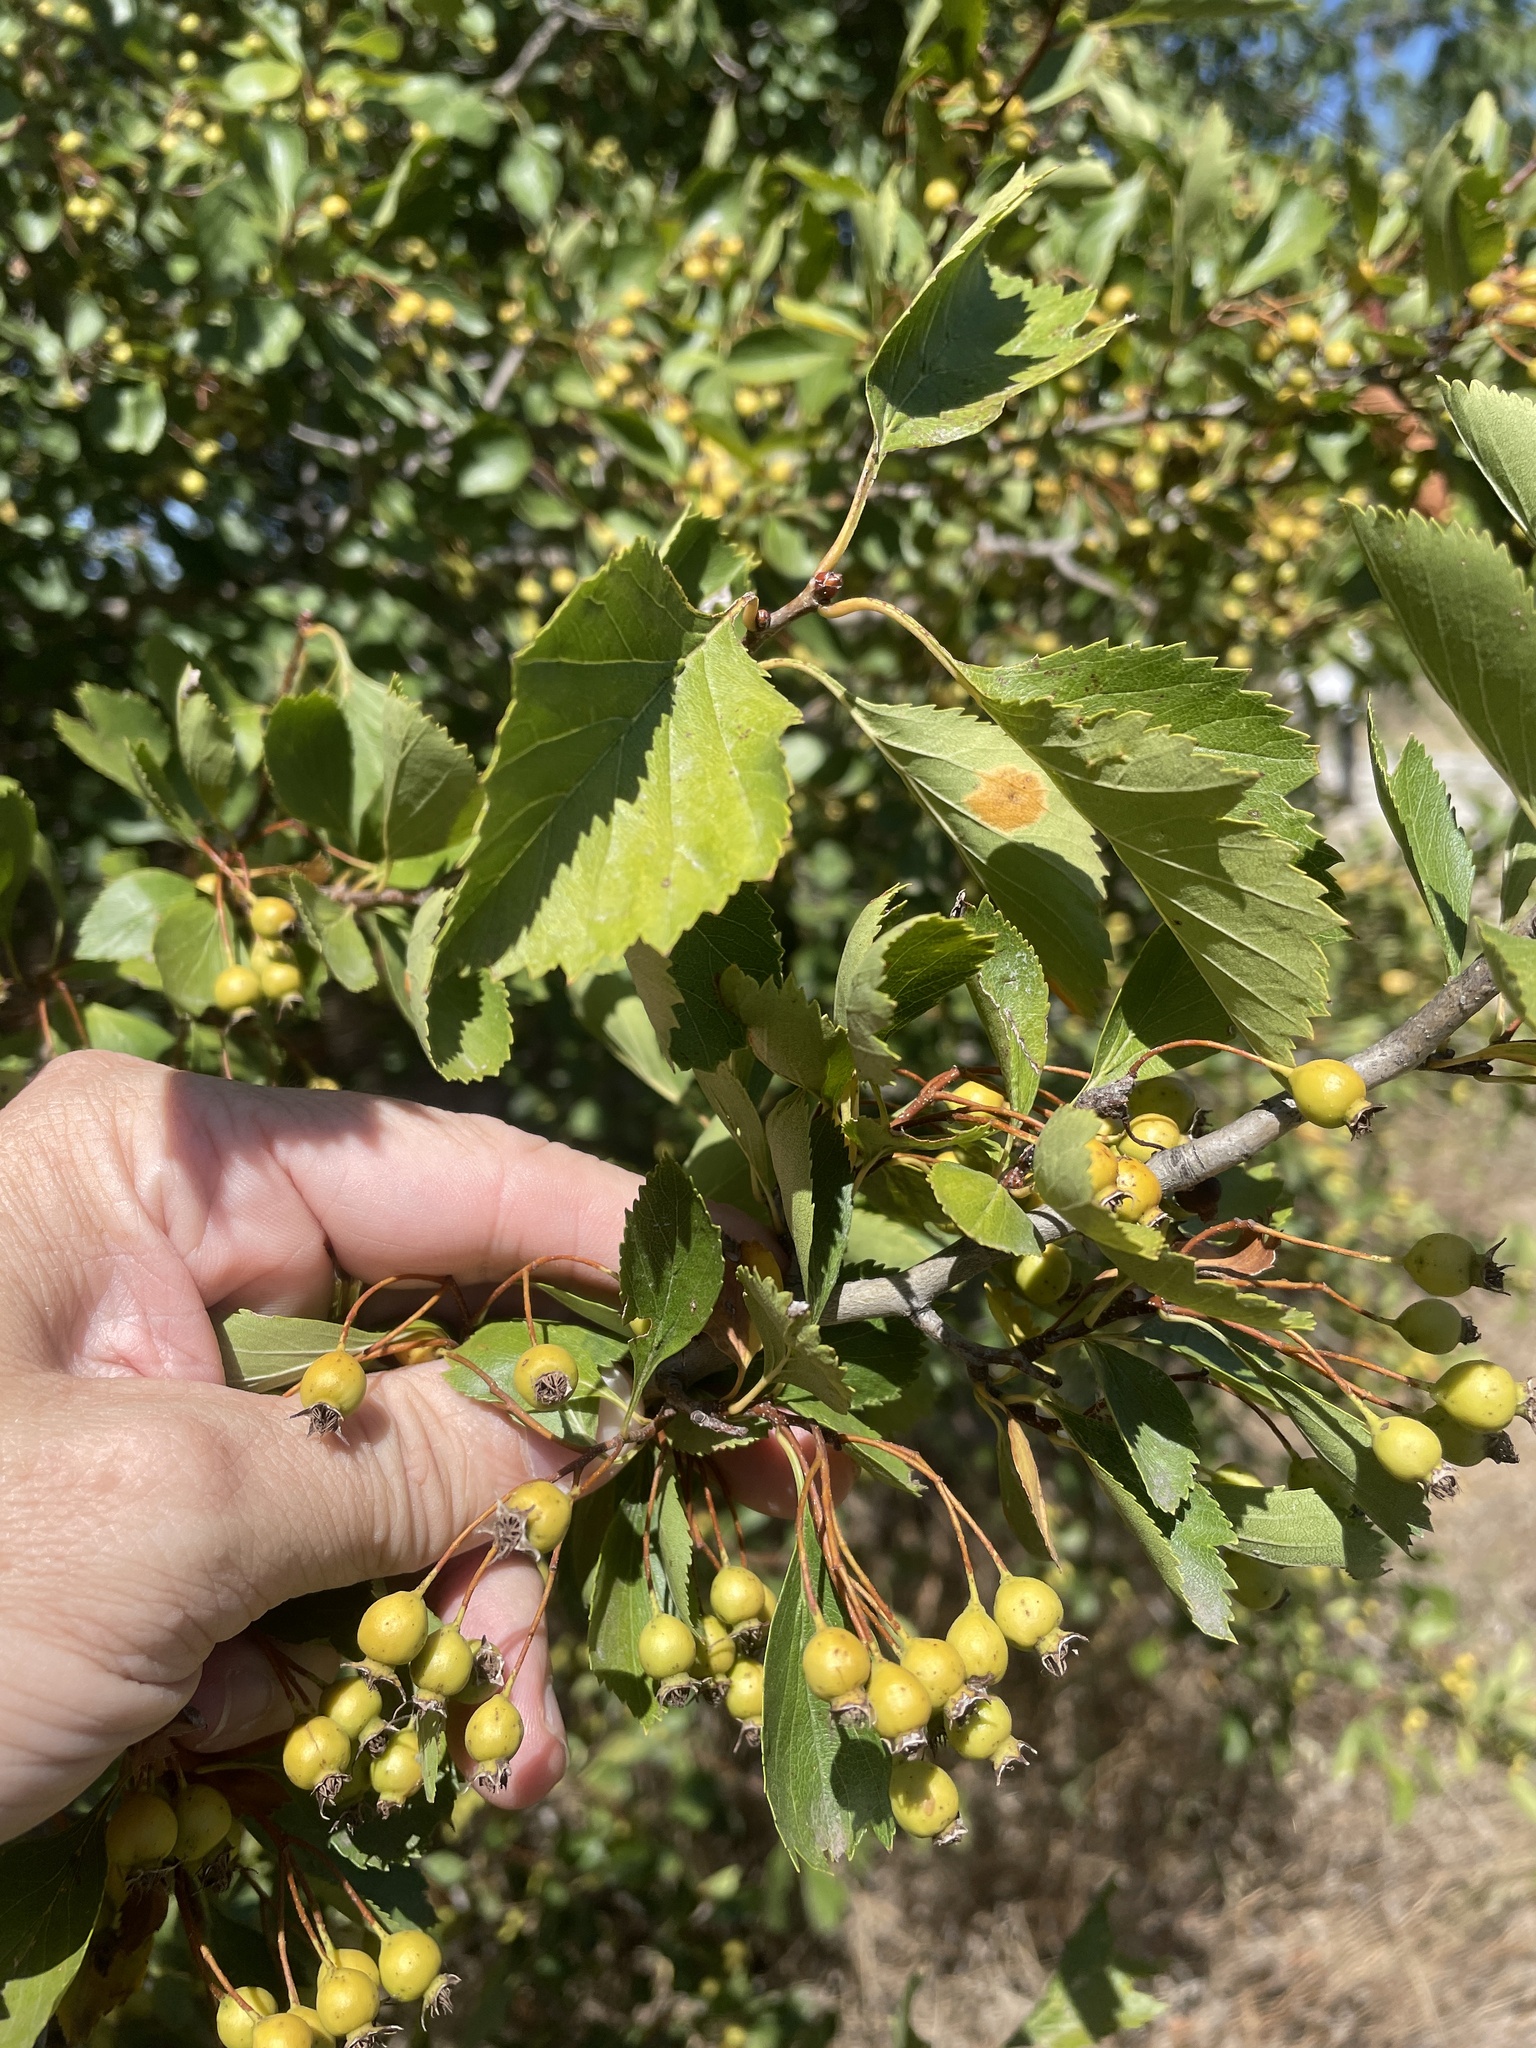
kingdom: Plantae
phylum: Tracheophyta
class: Magnoliopsida
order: Rosales
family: Rosaceae
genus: Crataegus
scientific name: Crataegus viridis
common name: Southernthorn
